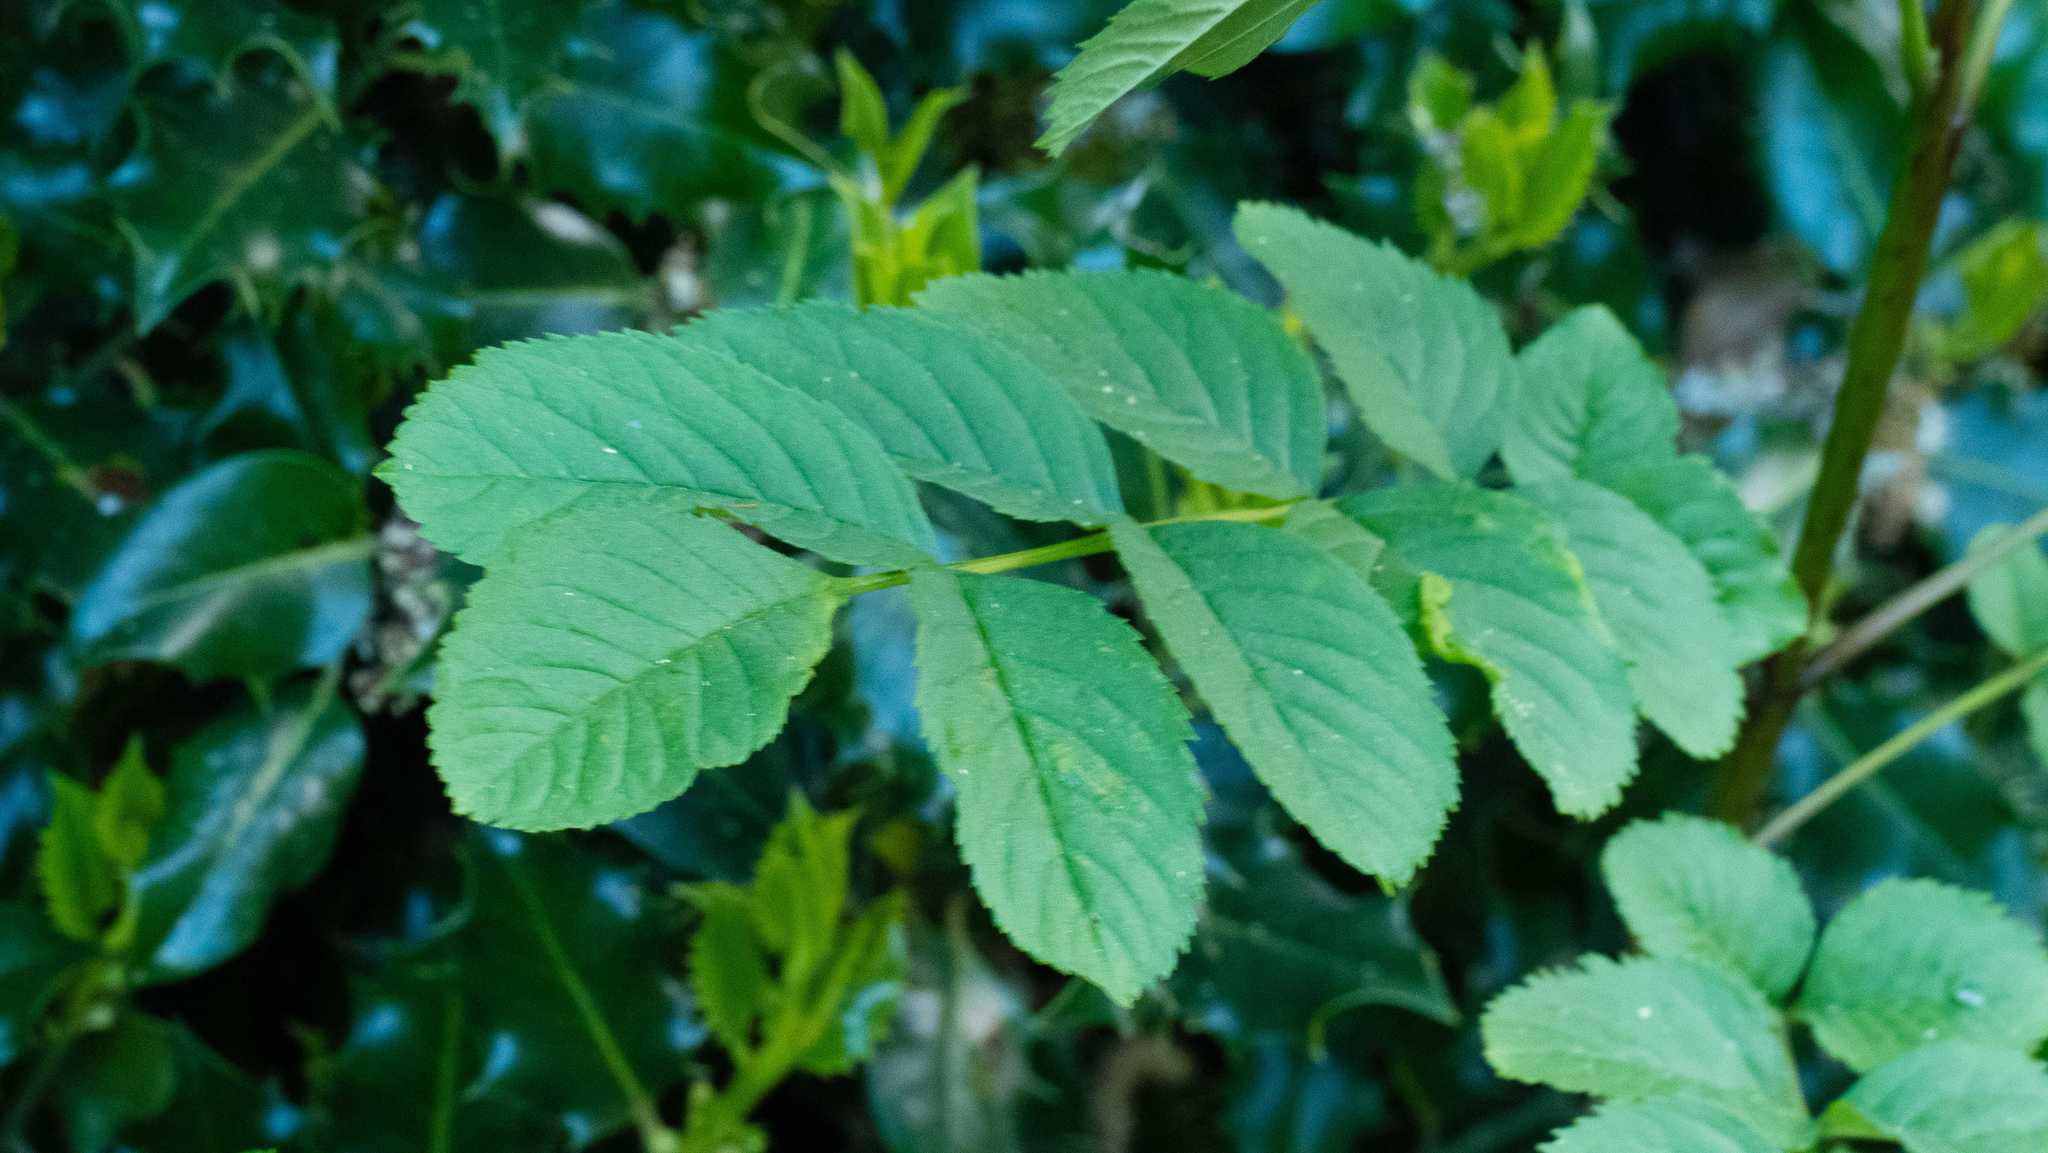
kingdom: Plantae
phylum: Tracheophyta
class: Magnoliopsida
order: Lamiales
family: Oleaceae
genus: Fraxinus
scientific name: Fraxinus excelsior
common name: European ash
